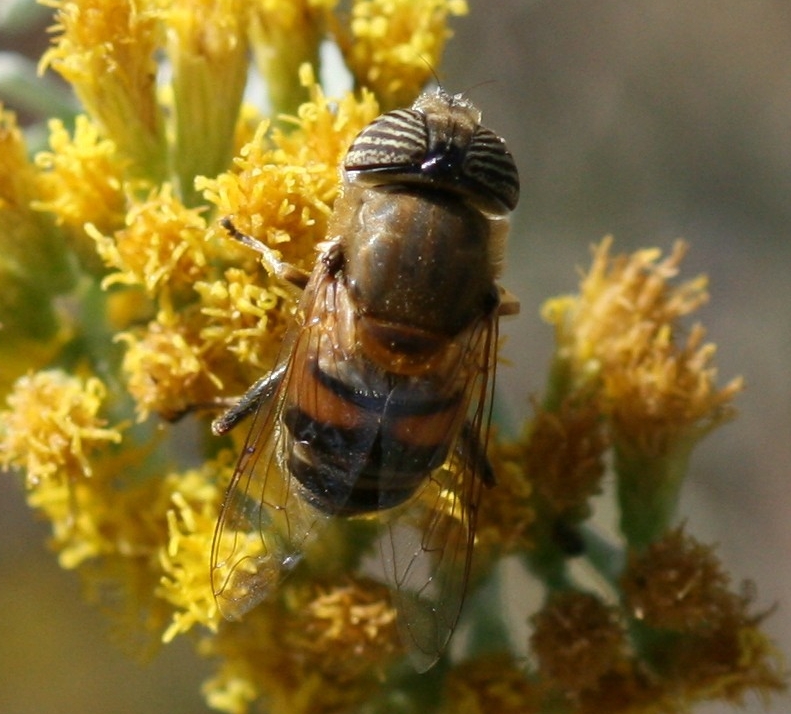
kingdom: Animalia
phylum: Arthropoda
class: Insecta
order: Diptera
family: Syrphidae
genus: Eristalinus
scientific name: Eristalinus taeniops
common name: Syrphid fly
